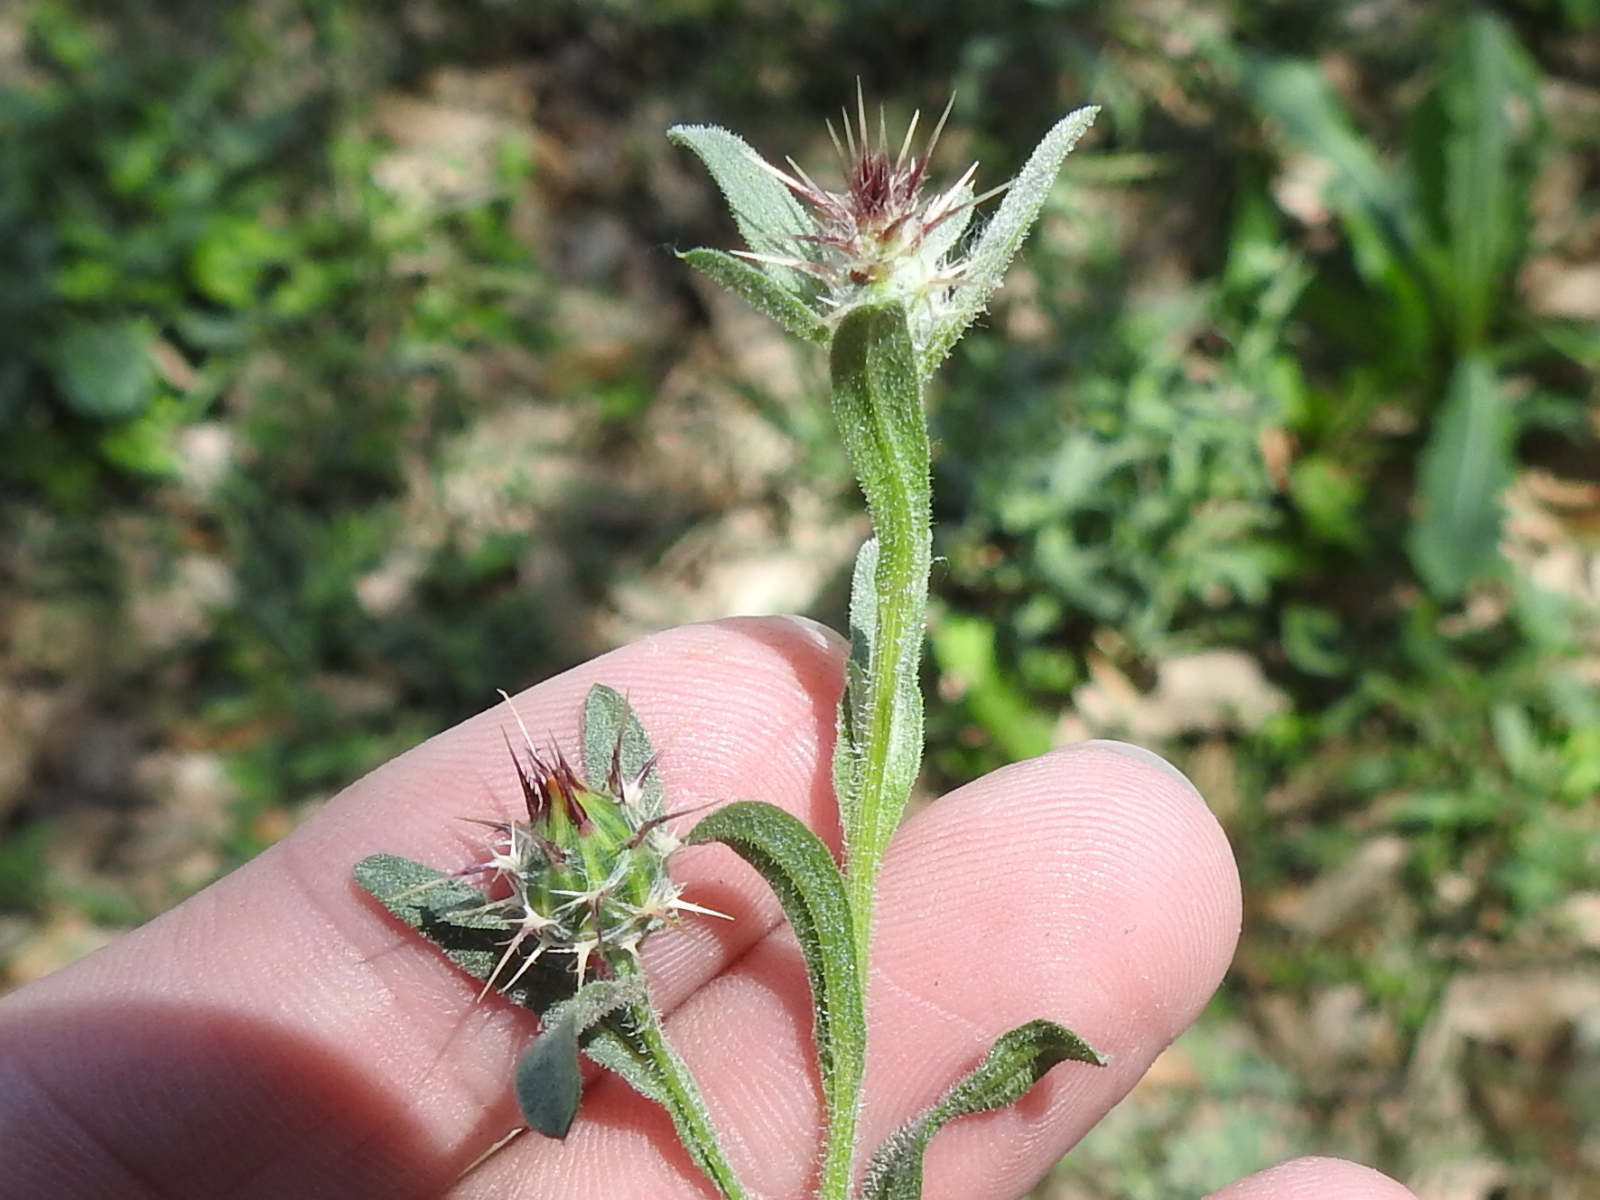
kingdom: Plantae
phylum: Tracheophyta
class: Magnoliopsida
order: Asterales
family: Asteraceae
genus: Centaurea
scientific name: Centaurea melitensis
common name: Maltese star-thistle
